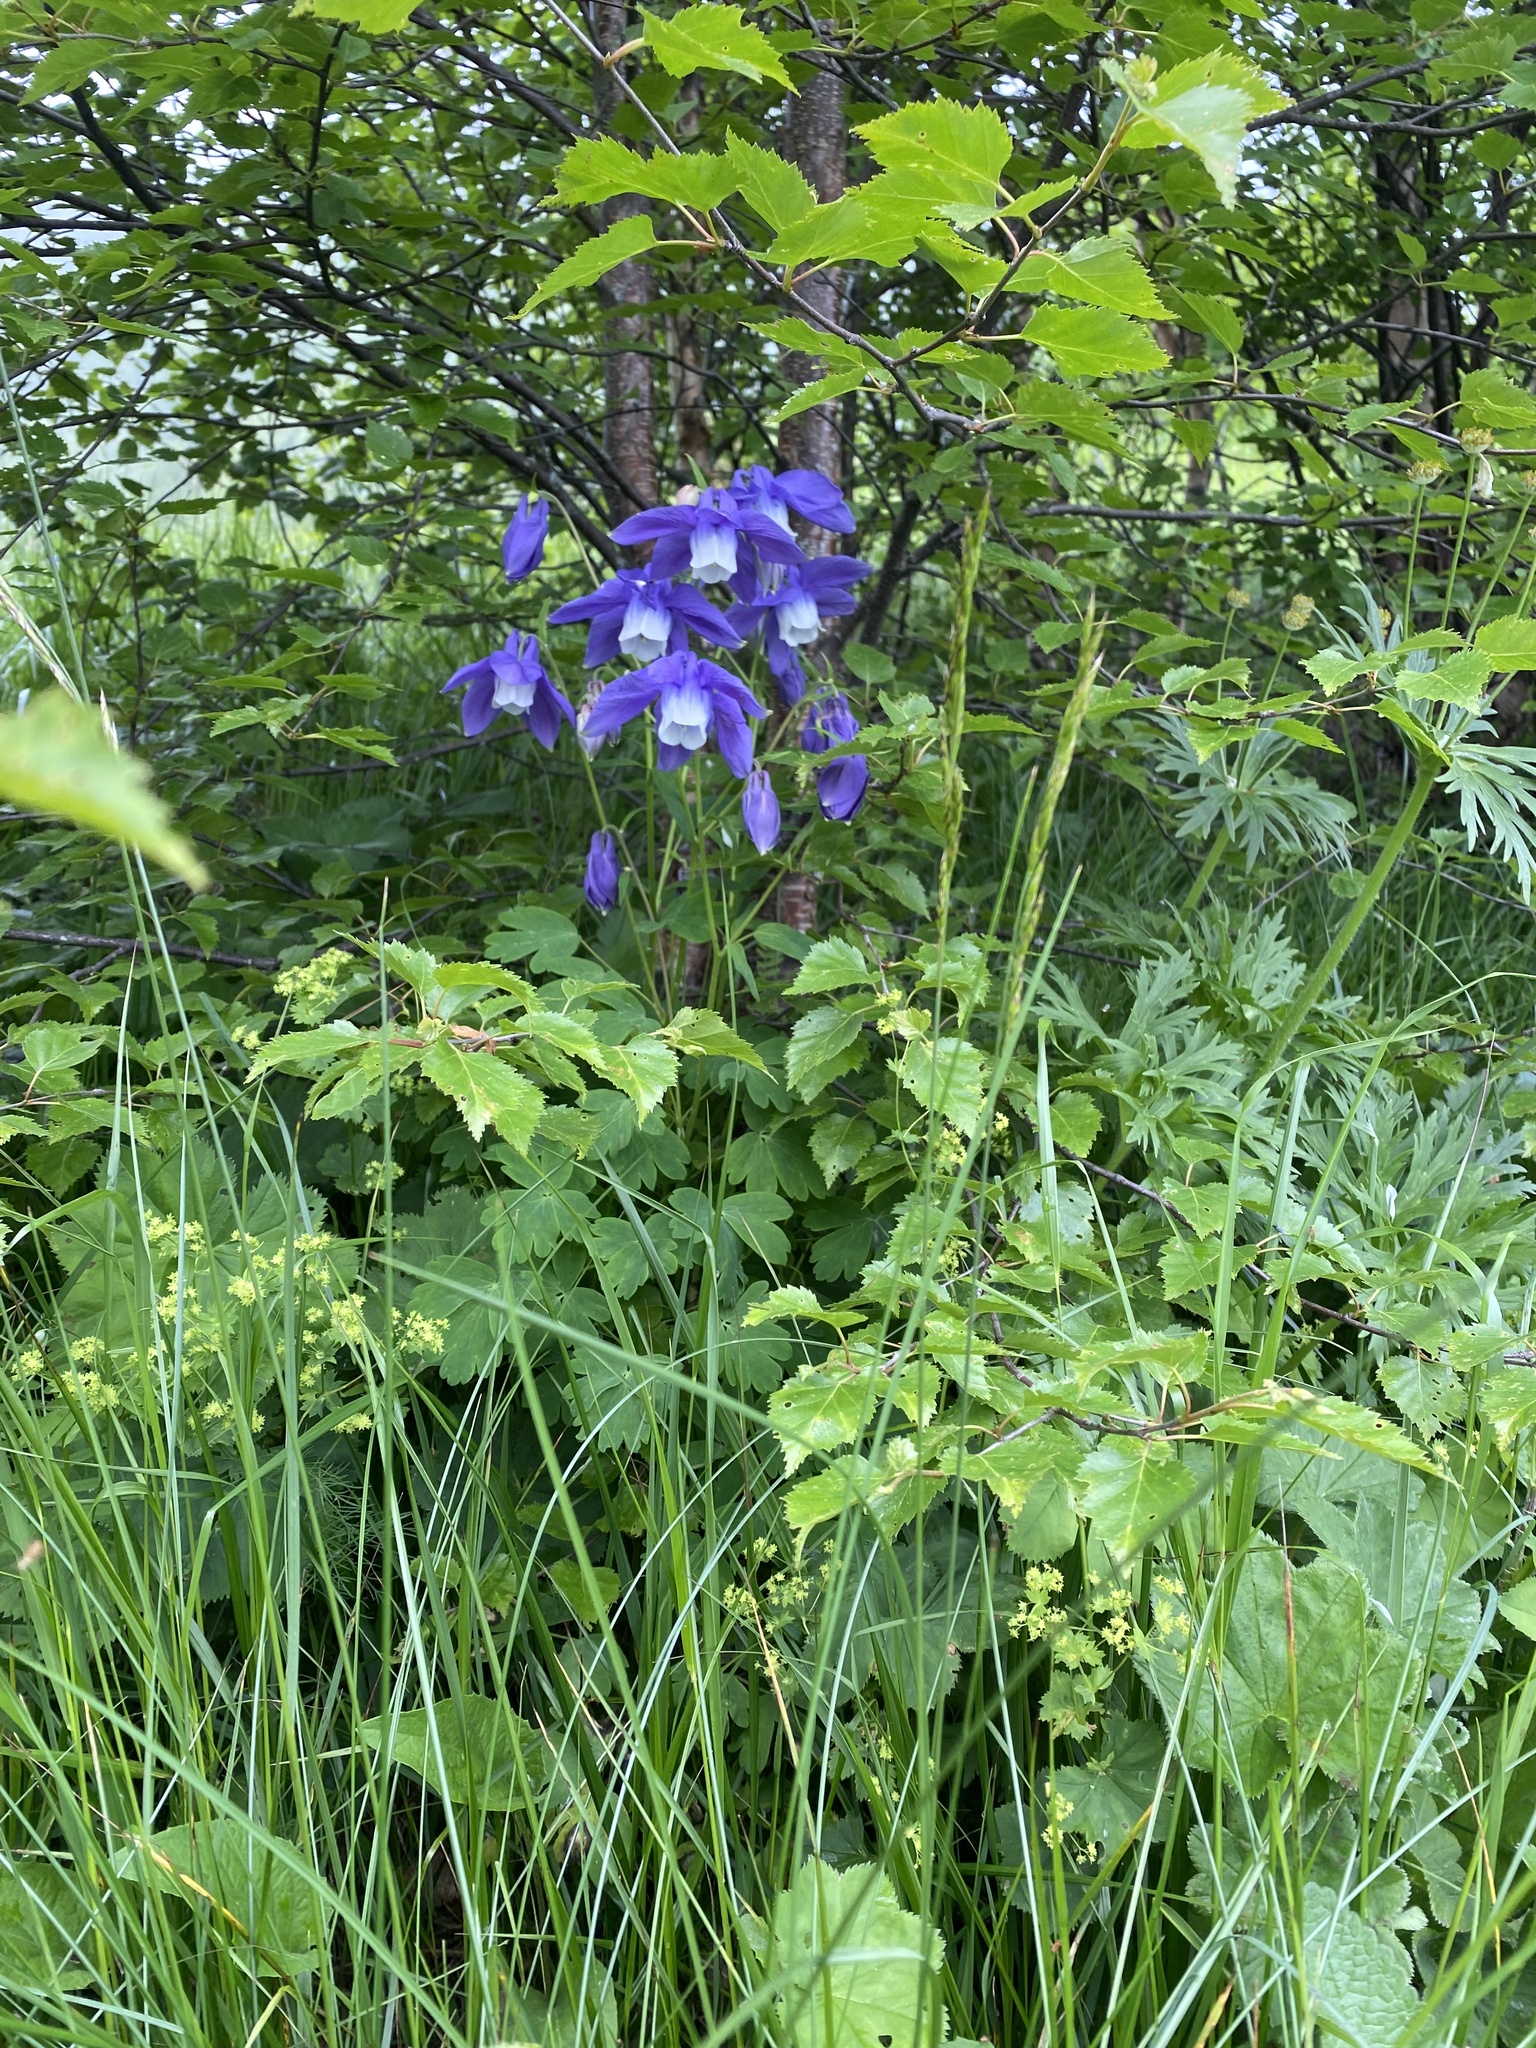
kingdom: Plantae
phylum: Tracheophyta
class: Magnoliopsida
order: Ranunculales
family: Ranunculaceae
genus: Aquilegia
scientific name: Aquilegia olympica
